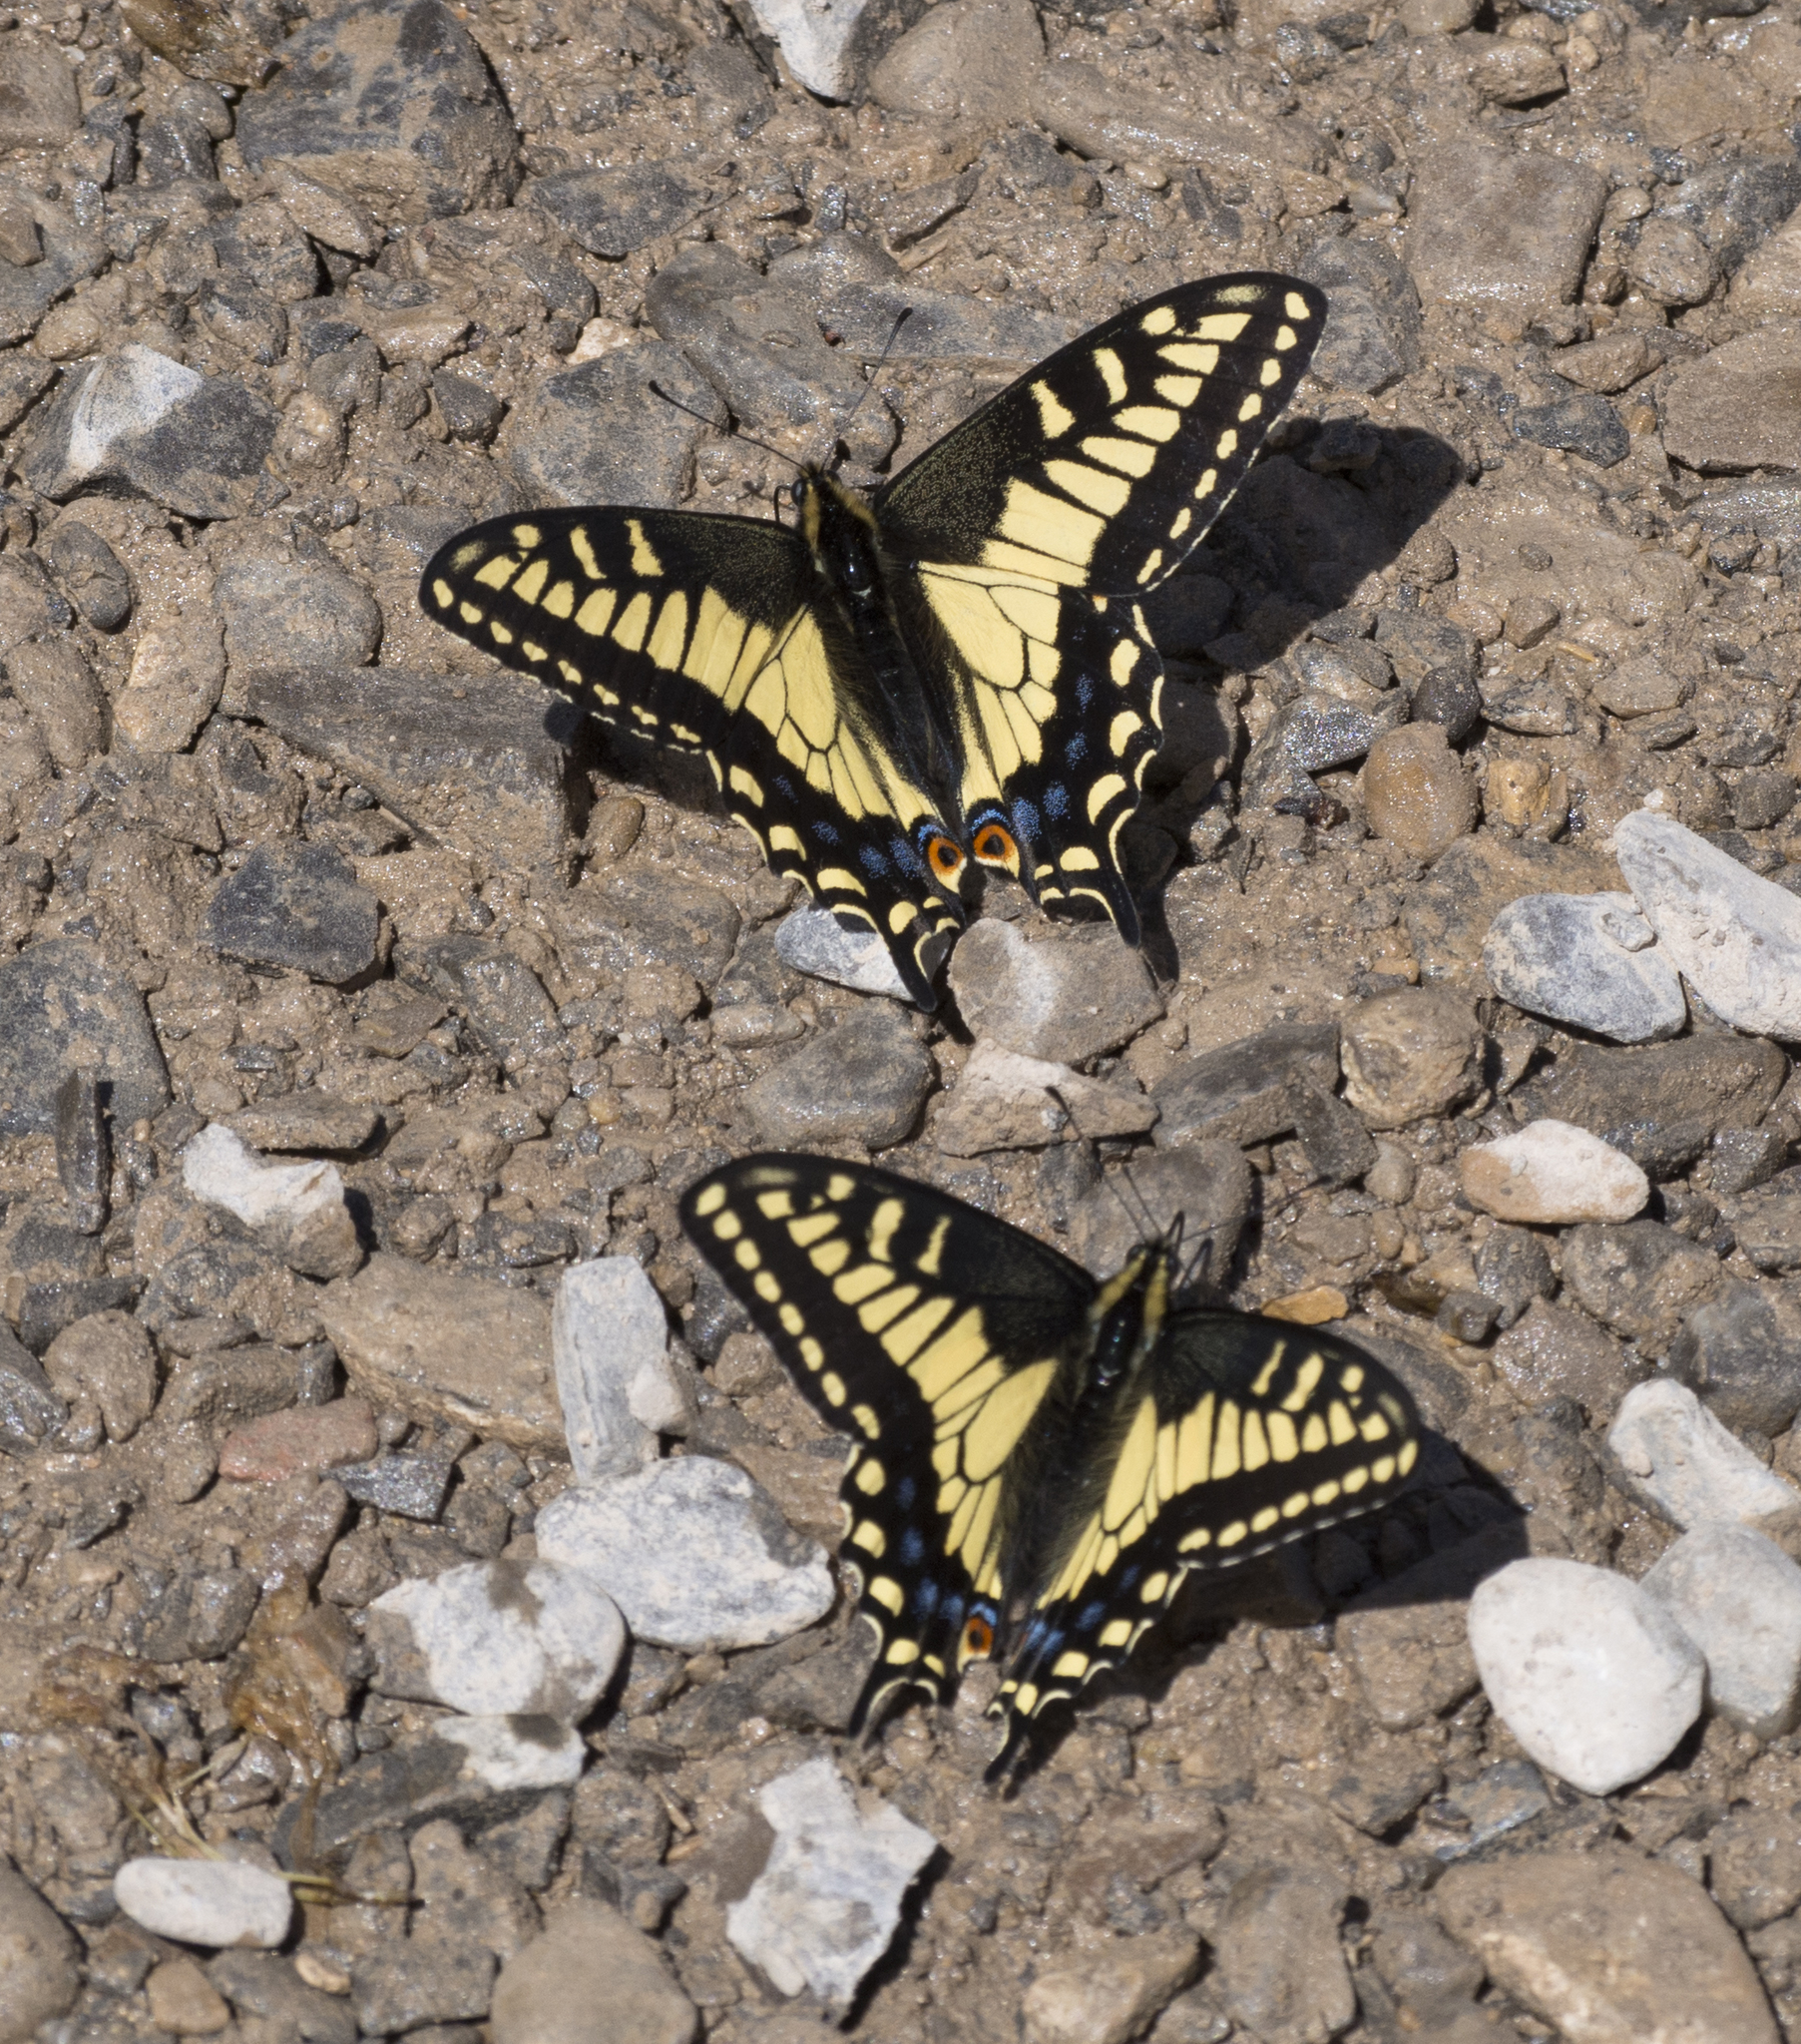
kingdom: Animalia
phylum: Arthropoda
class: Insecta
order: Lepidoptera
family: Papilionidae
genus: Papilio
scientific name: Papilio zelicaon
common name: Anise swallowtail
